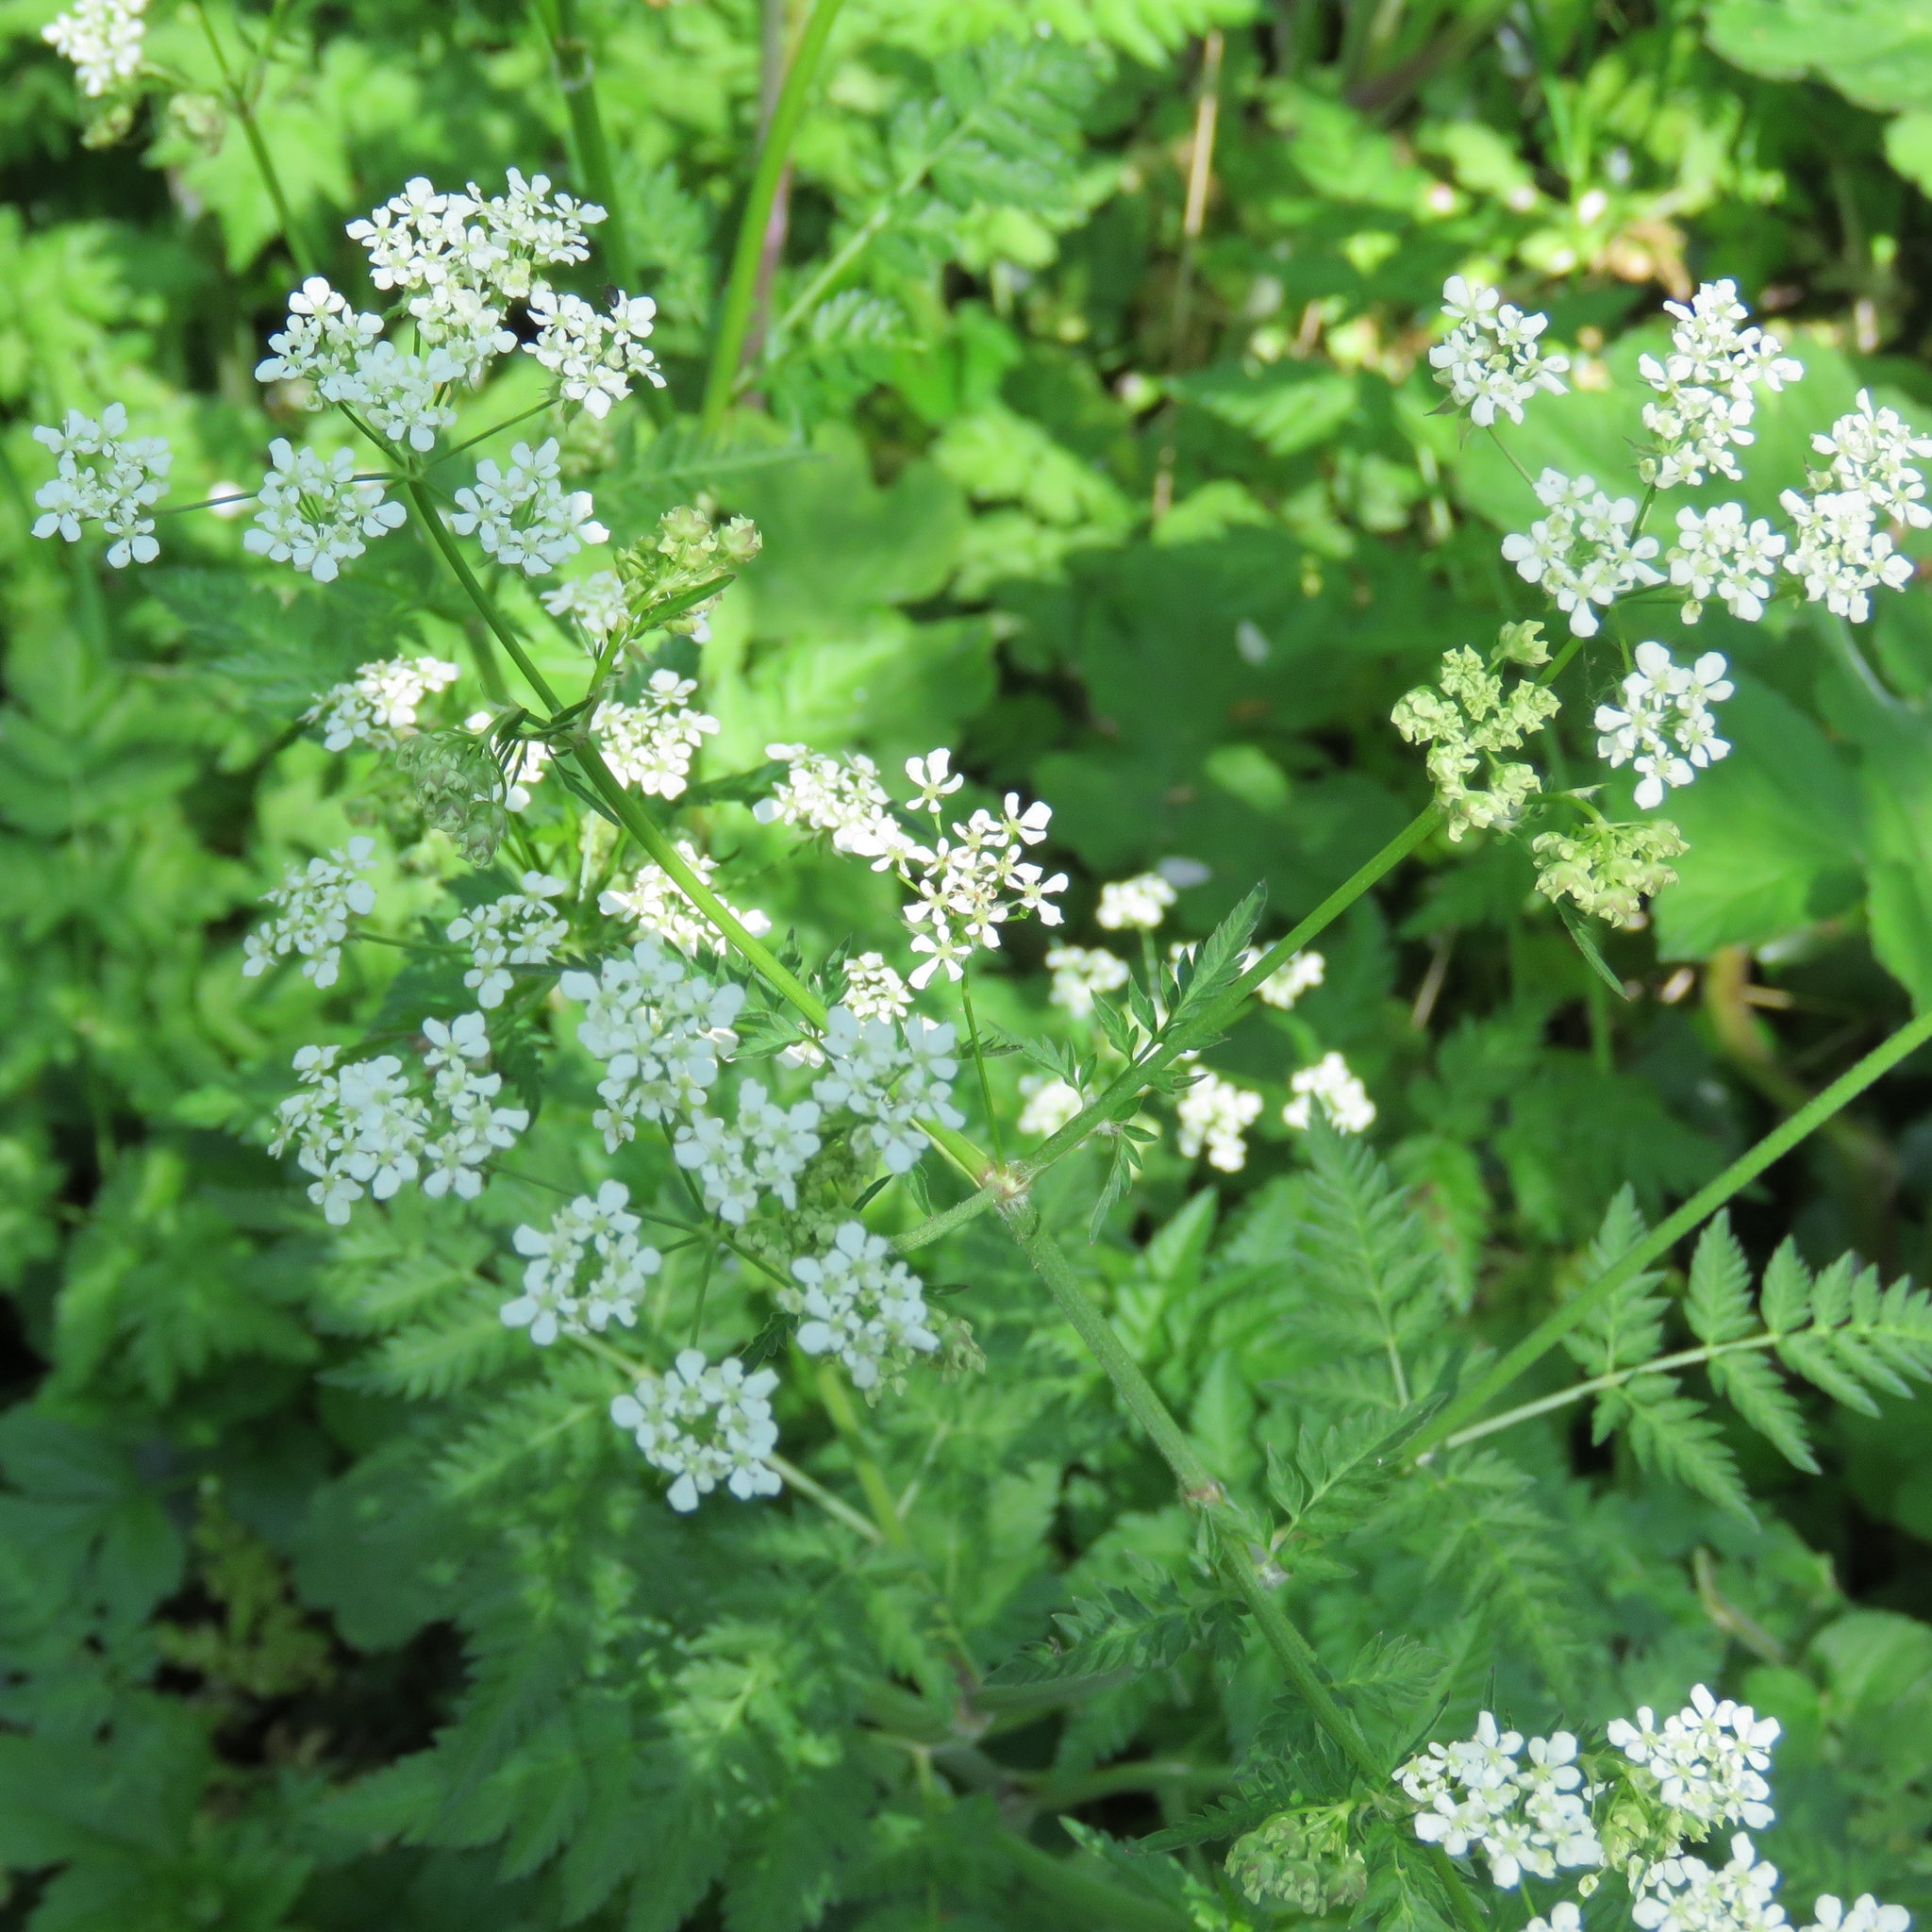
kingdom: Plantae
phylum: Tracheophyta
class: Magnoliopsida
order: Apiales
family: Apiaceae
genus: Anthriscus
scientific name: Anthriscus sylvestris
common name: Cow parsley
